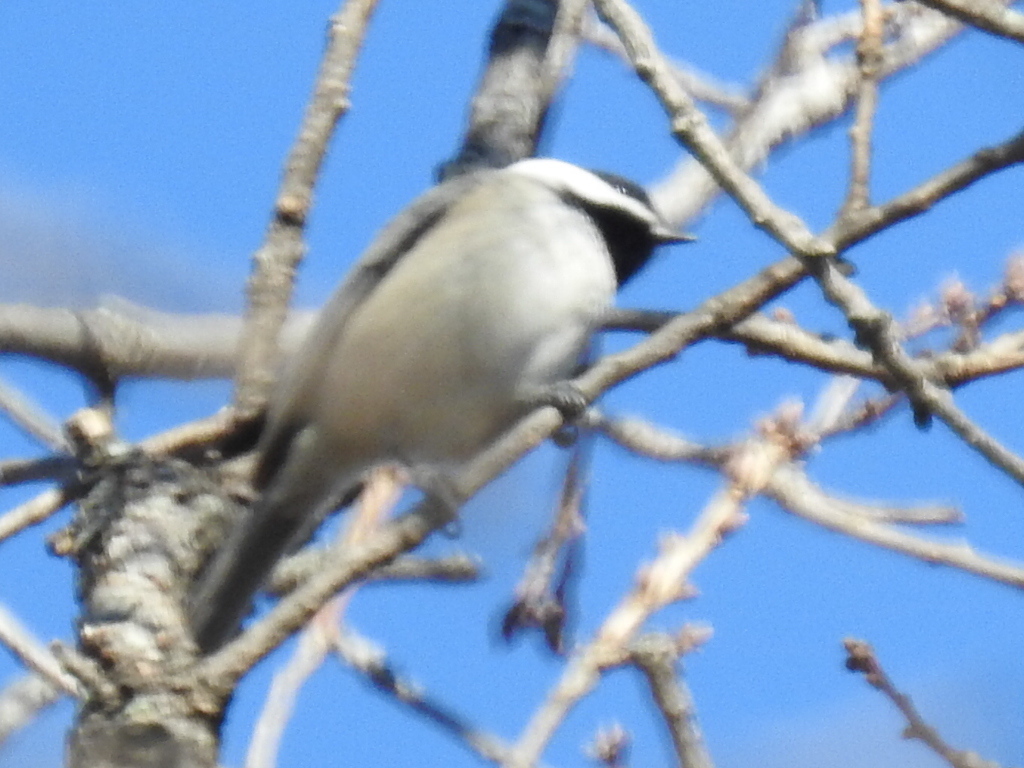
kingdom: Animalia
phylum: Chordata
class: Aves
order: Passeriformes
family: Paridae
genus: Poecile
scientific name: Poecile carolinensis
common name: Carolina chickadee
